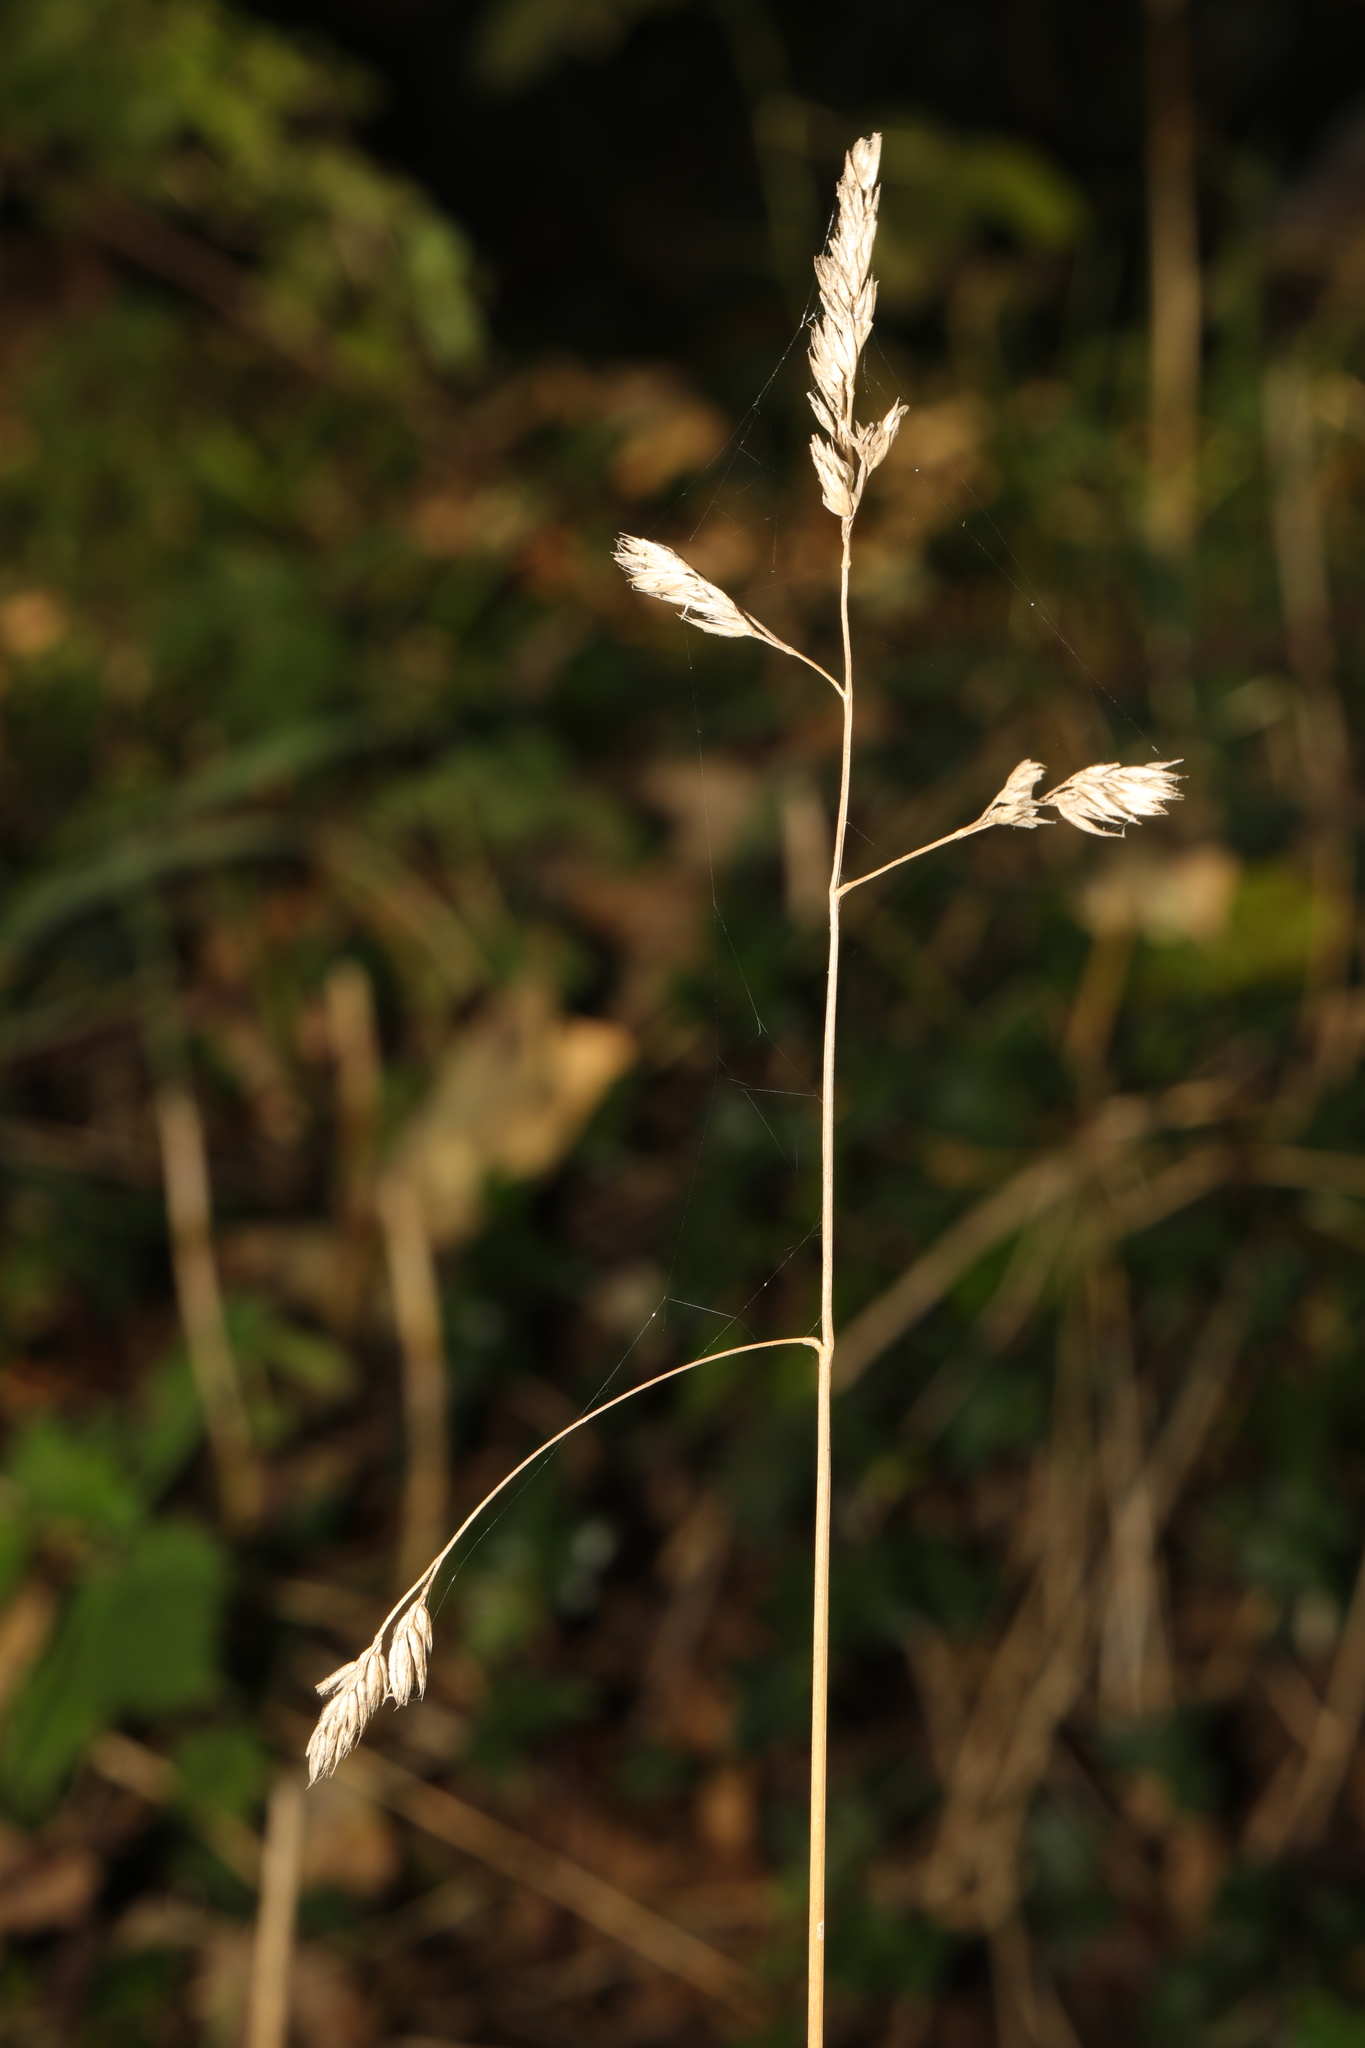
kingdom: Plantae
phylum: Tracheophyta
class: Liliopsida
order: Poales
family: Poaceae
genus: Dactylis
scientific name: Dactylis glomerata
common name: Orchardgrass
